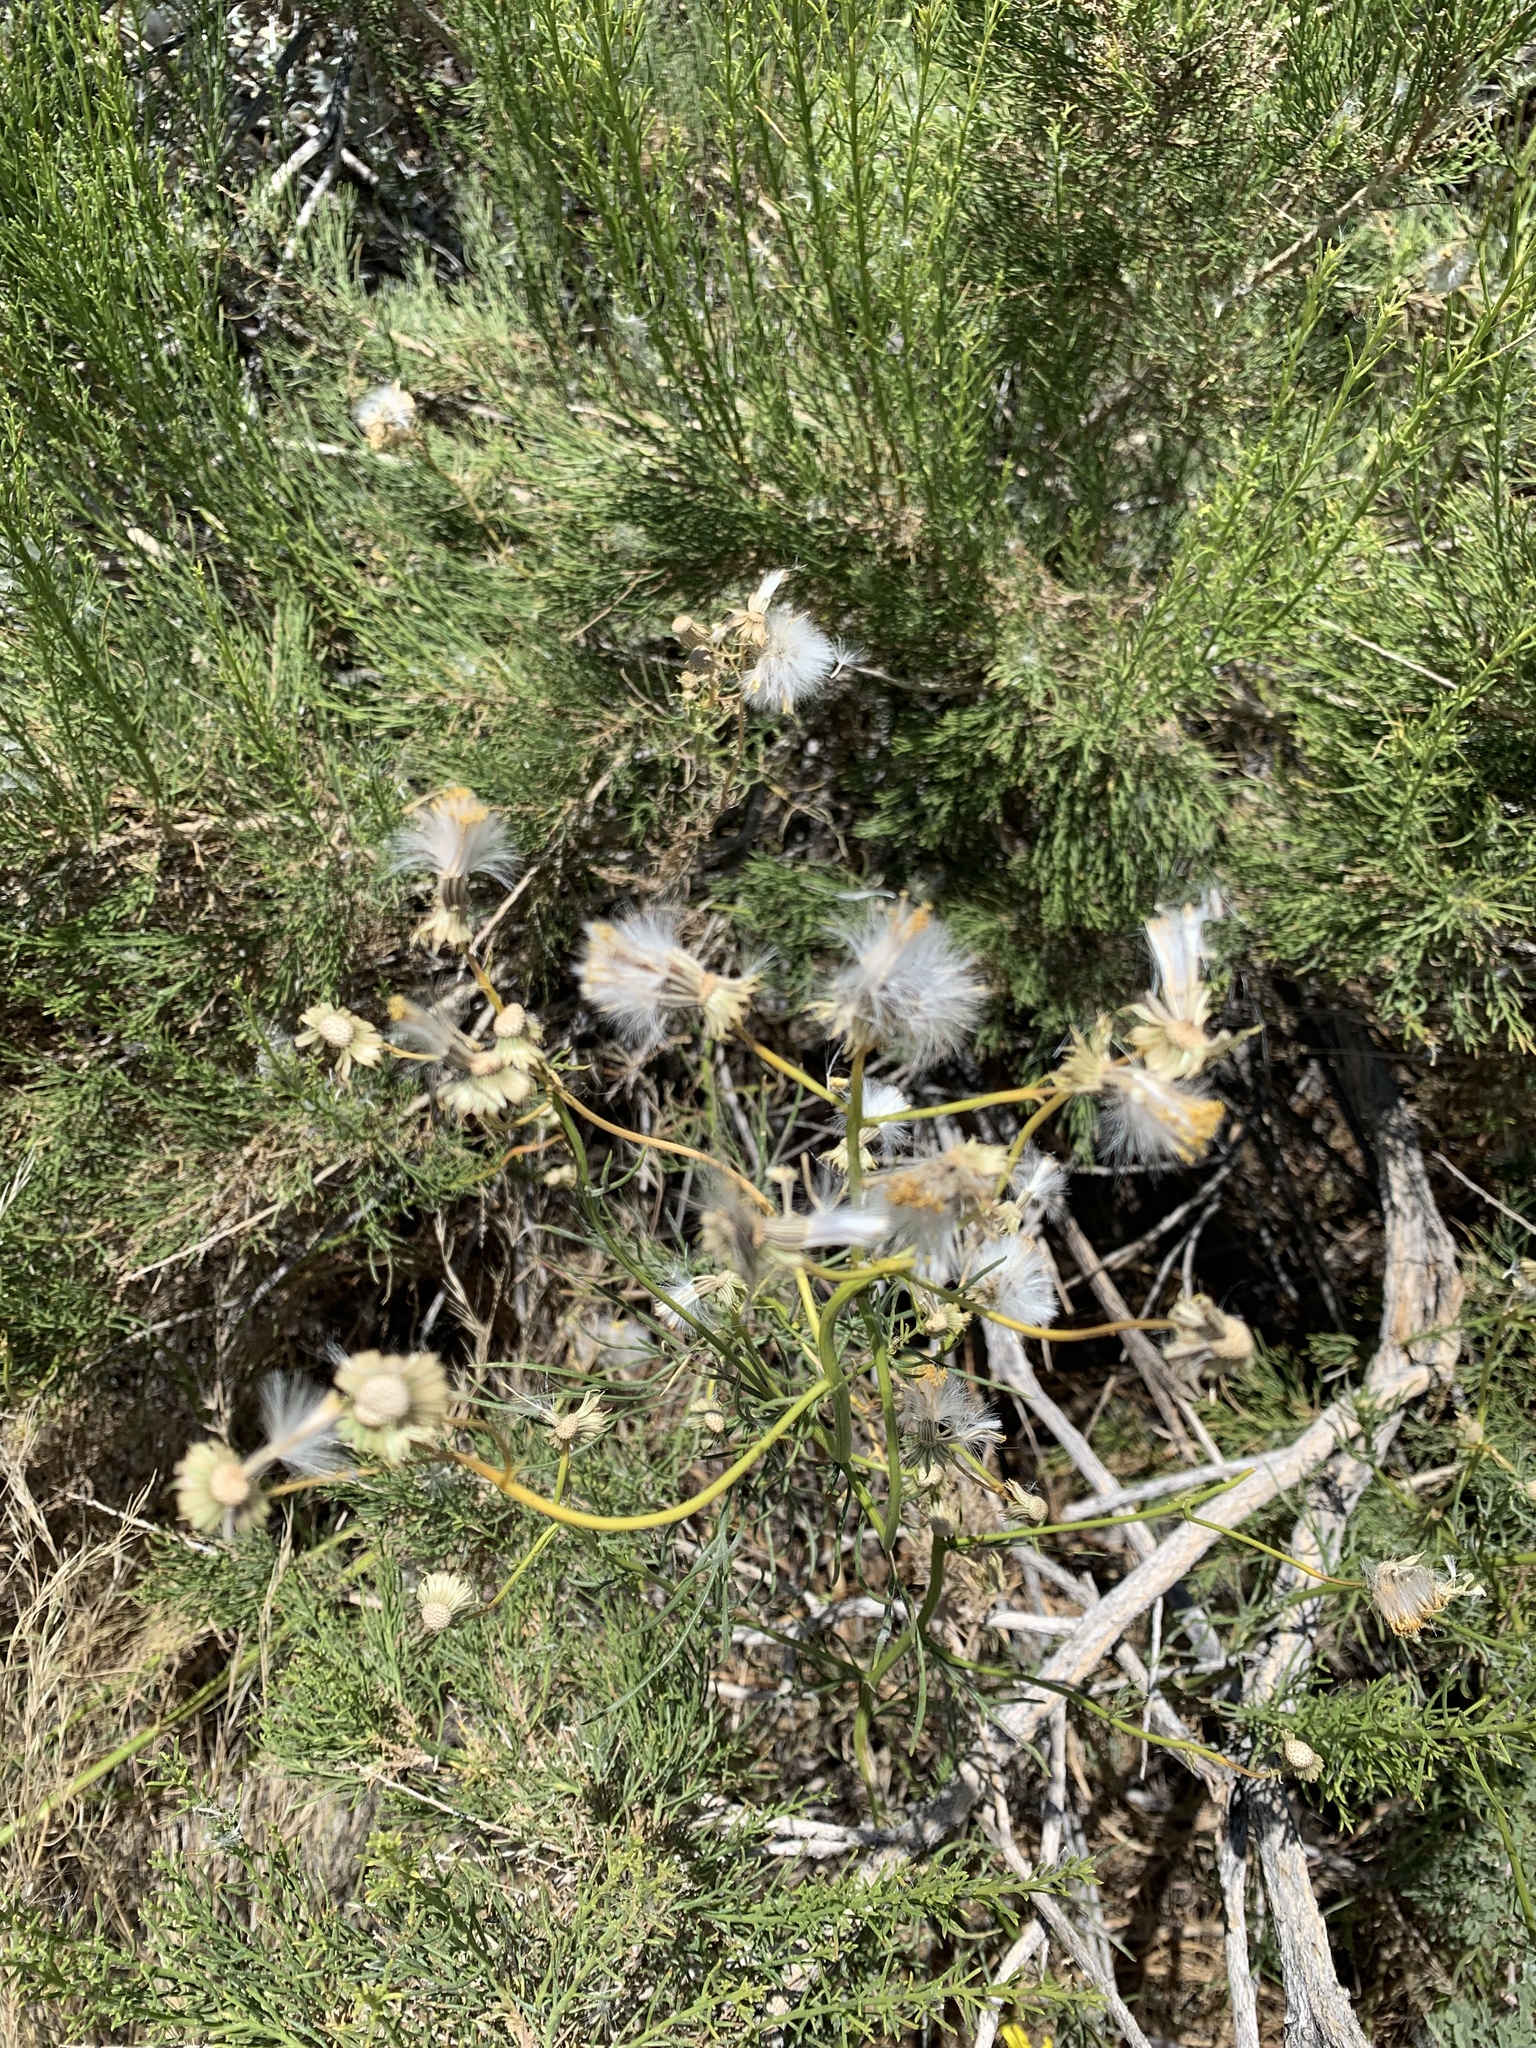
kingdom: Plantae
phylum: Tracheophyta
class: Magnoliopsida
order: Asterales
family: Asteraceae
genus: Senecio
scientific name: Senecio flaccidus
